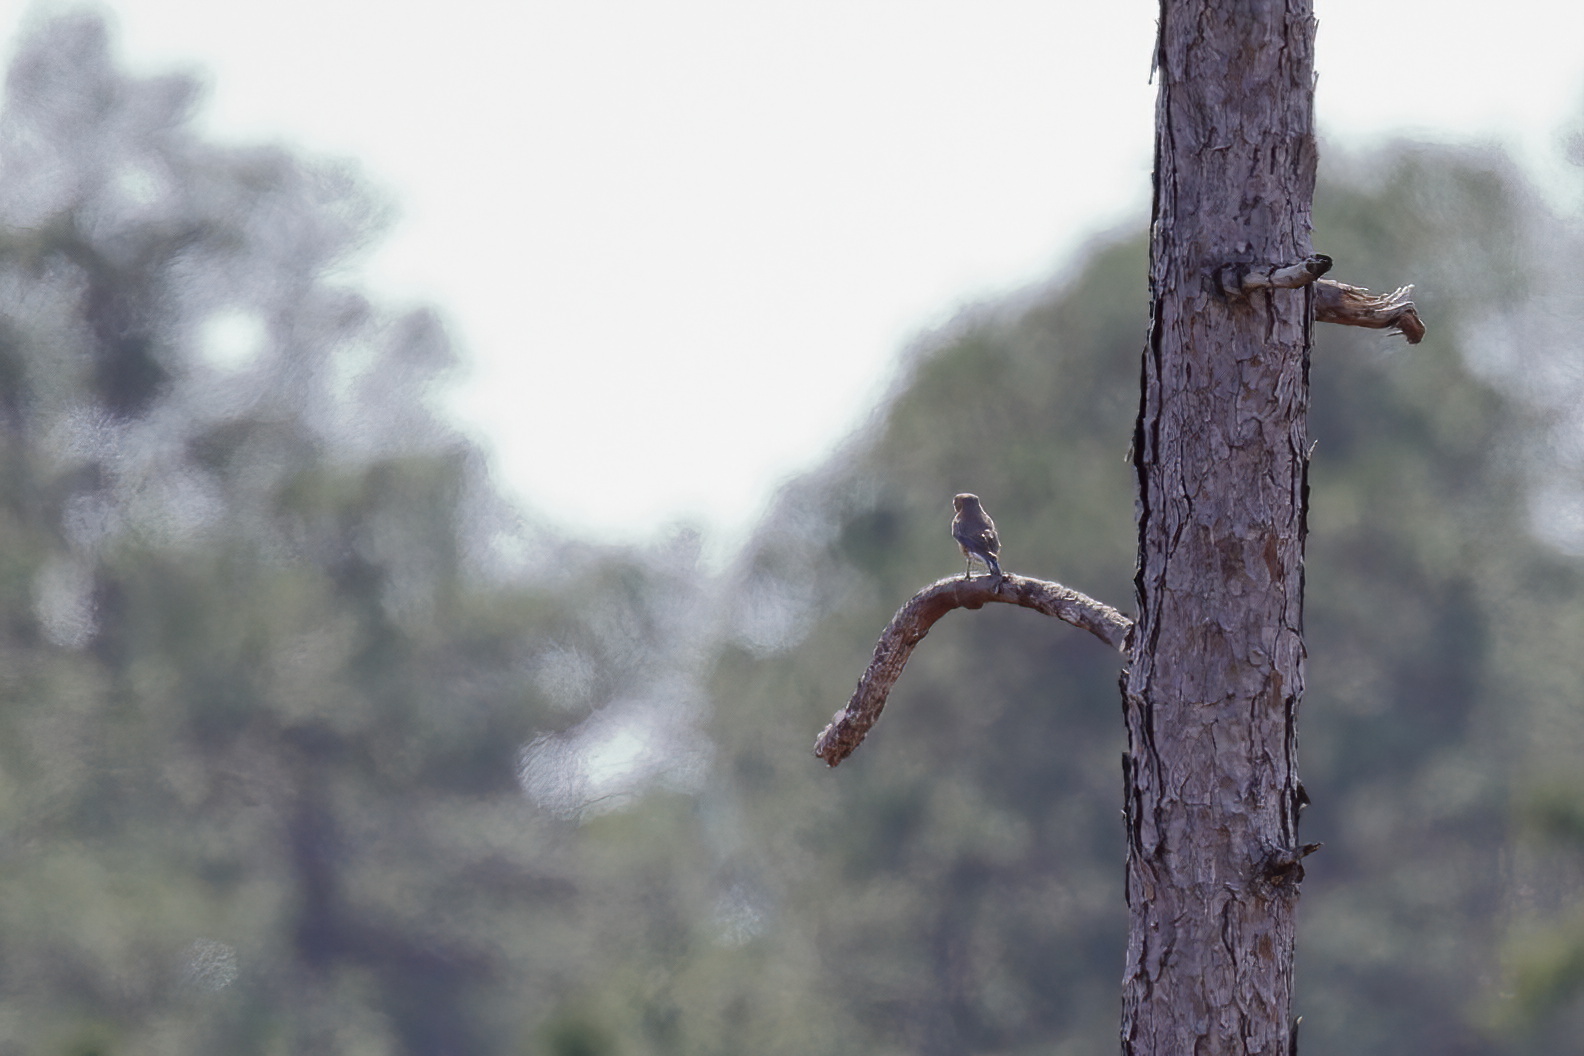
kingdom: Animalia
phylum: Chordata
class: Aves
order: Passeriformes
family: Turdidae
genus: Sialia
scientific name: Sialia sialis
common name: Eastern bluebird
